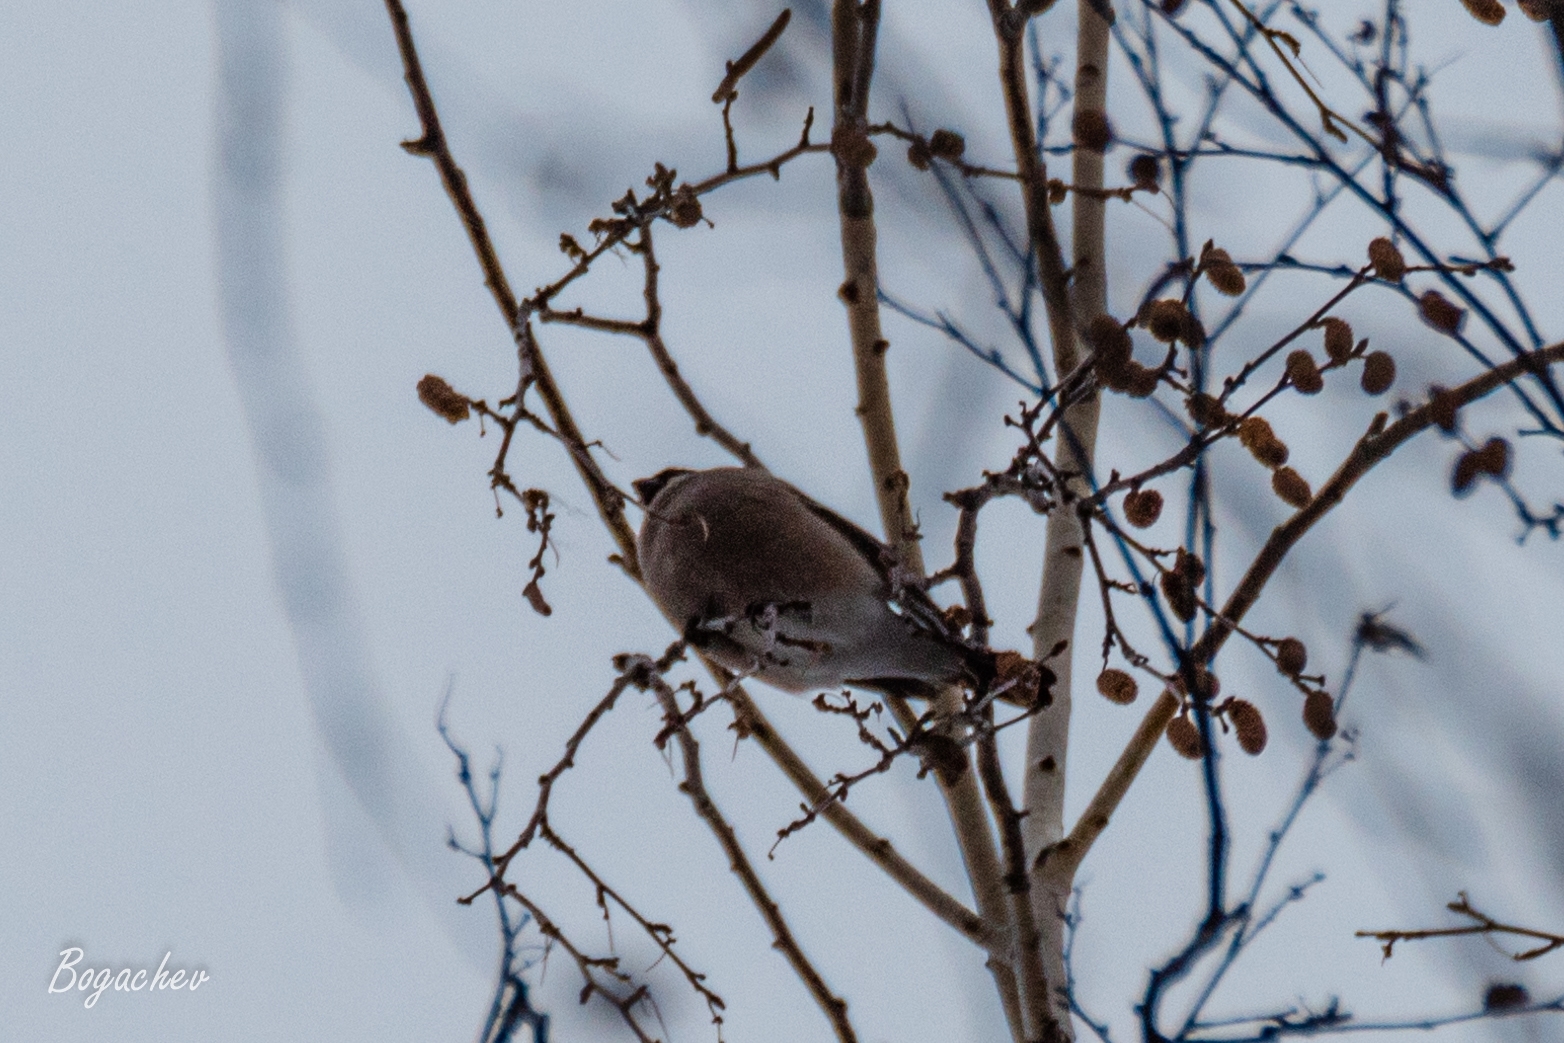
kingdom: Animalia
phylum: Chordata
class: Aves
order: Passeriformes
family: Fringillidae
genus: Pyrrhula
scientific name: Pyrrhula pyrrhula
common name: Eurasian bullfinch
